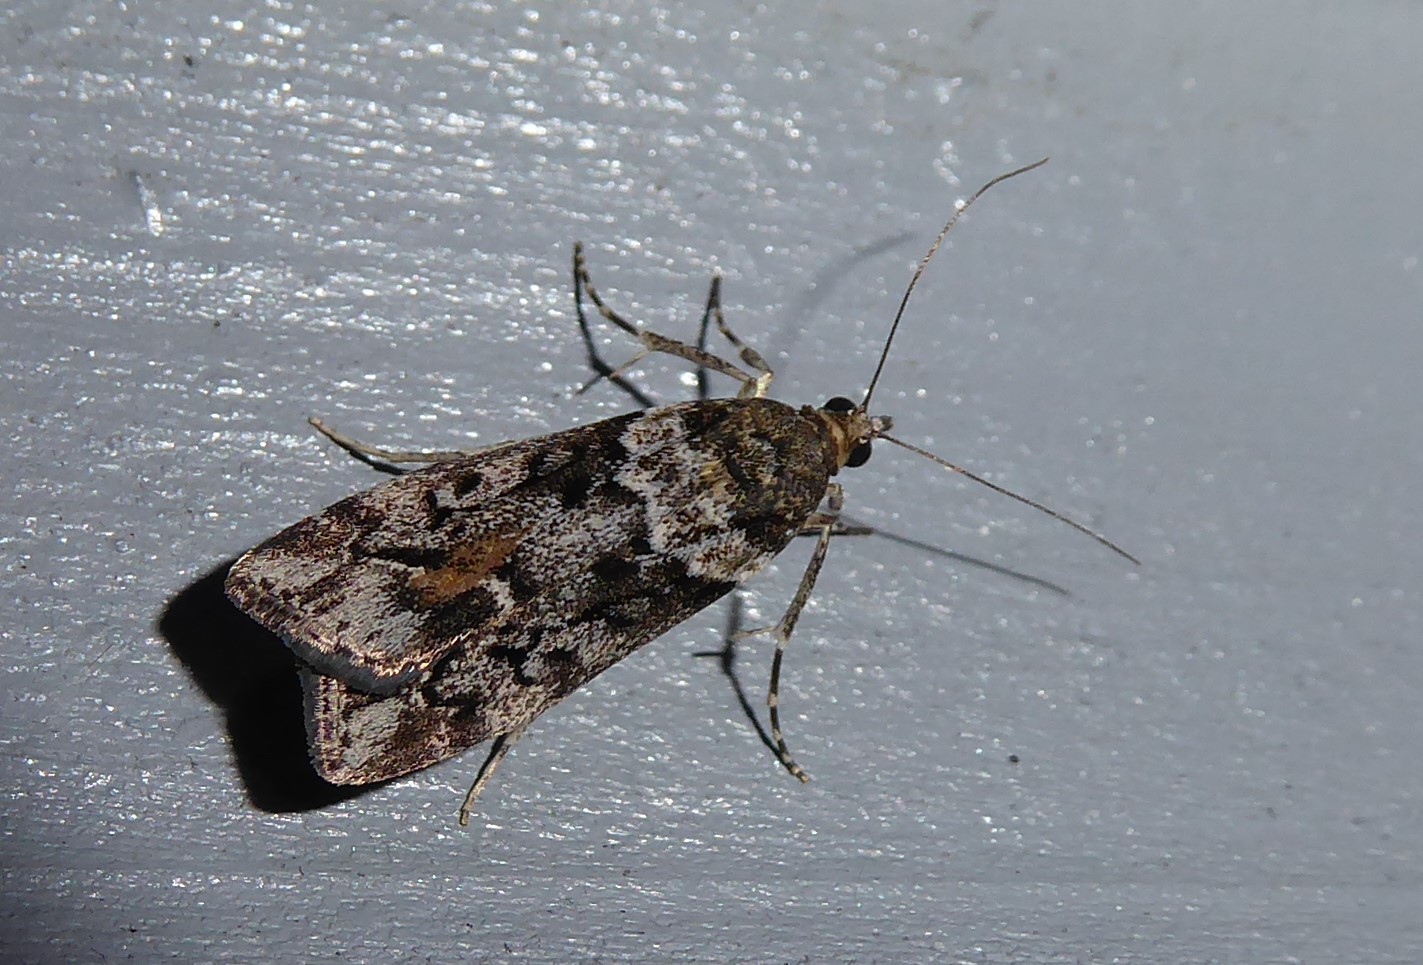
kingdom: Animalia
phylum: Arthropoda
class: Insecta
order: Lepidoptera
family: Crambidae
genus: Eudonia
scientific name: Eudonia submarginalis
